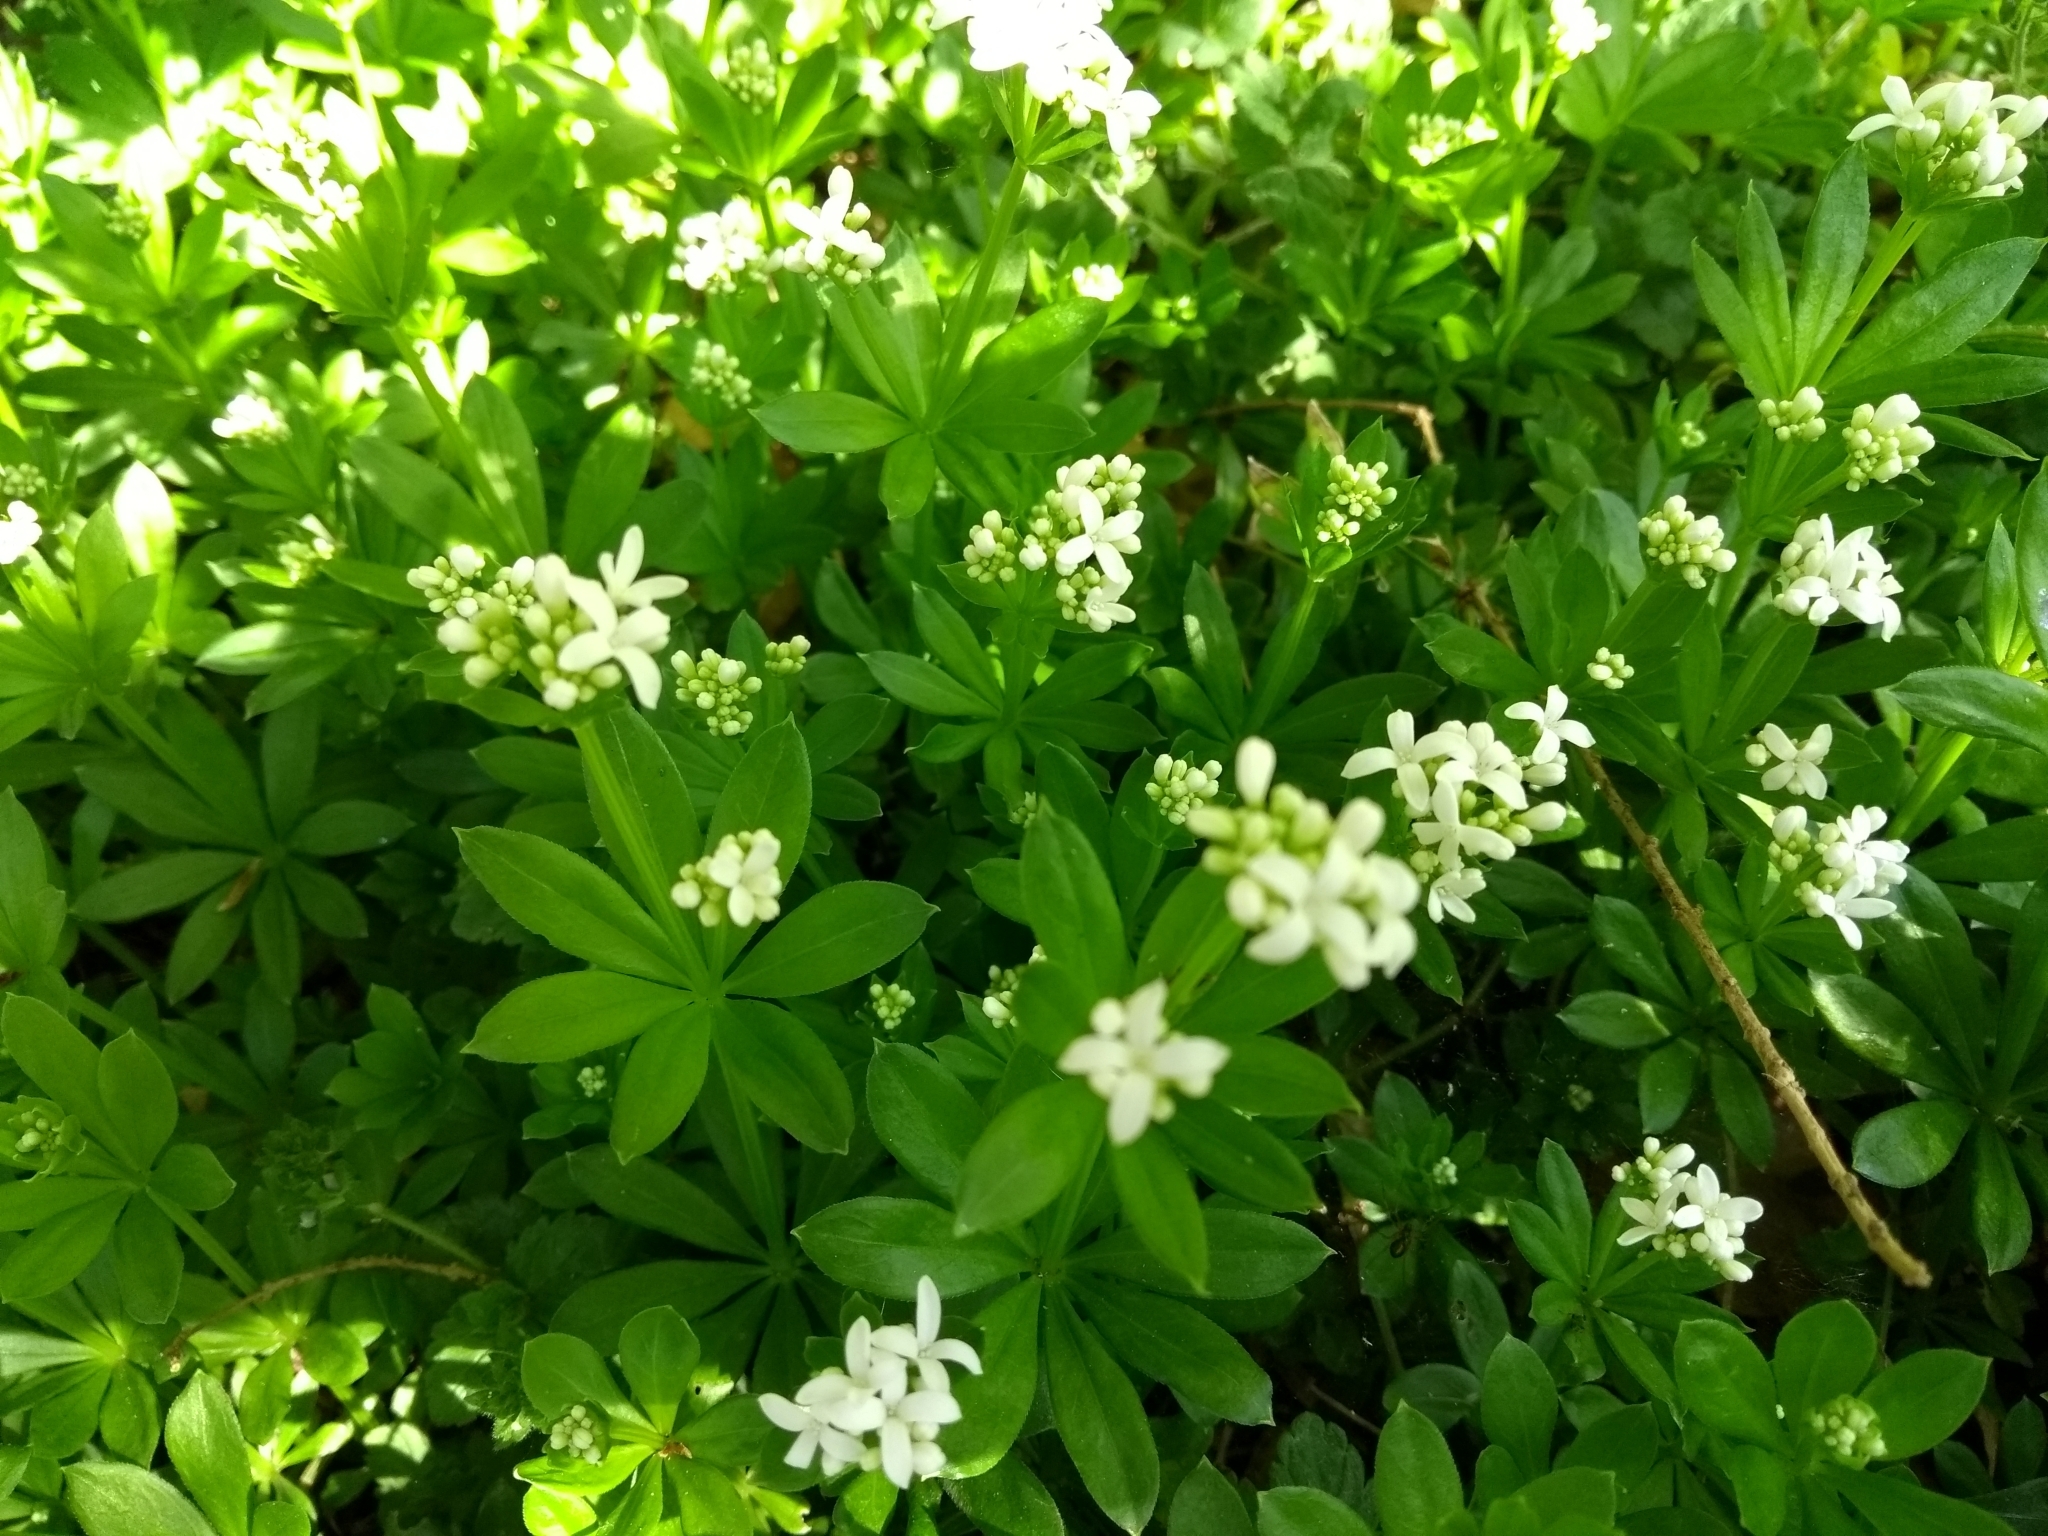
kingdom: Plantae
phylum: Tracheophyta
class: Magnoliopsida
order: Gentianales
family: Rubiaceae
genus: Galium
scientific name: Galium odoratum
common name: Sweet woodruff
